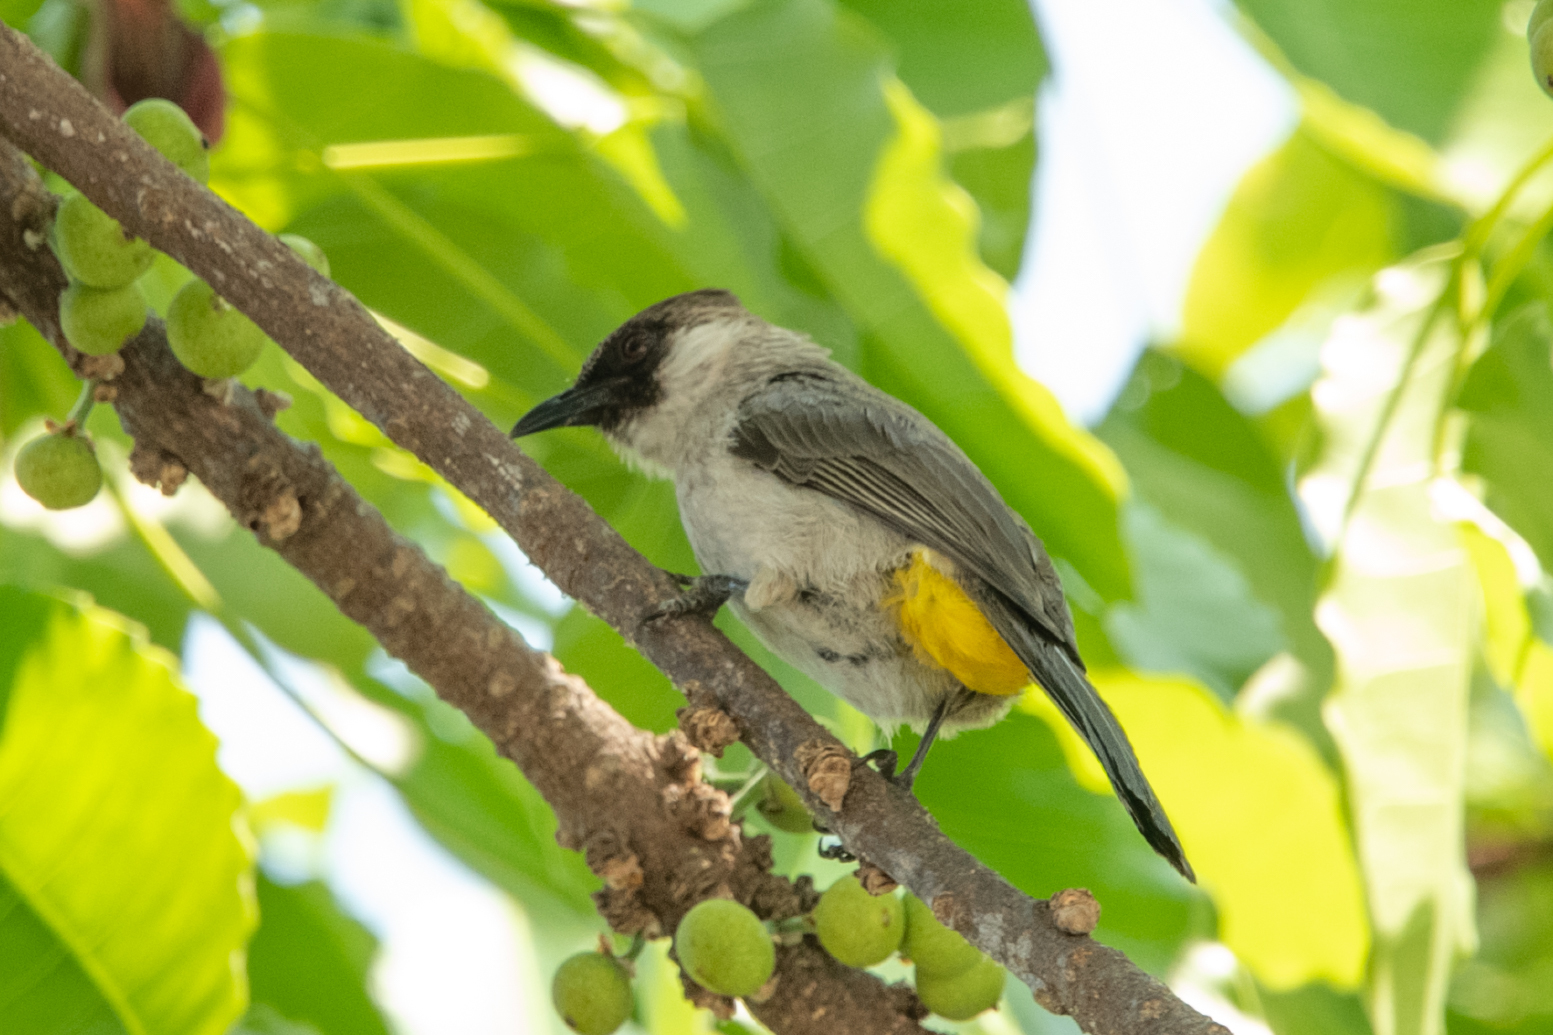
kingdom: Animalia
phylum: Chordata
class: Aves
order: Passeriformes
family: Pycnonotidae
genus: Pycnonotus
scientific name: Pycnonotus aurigaster
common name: Sooty-headed bulbul
